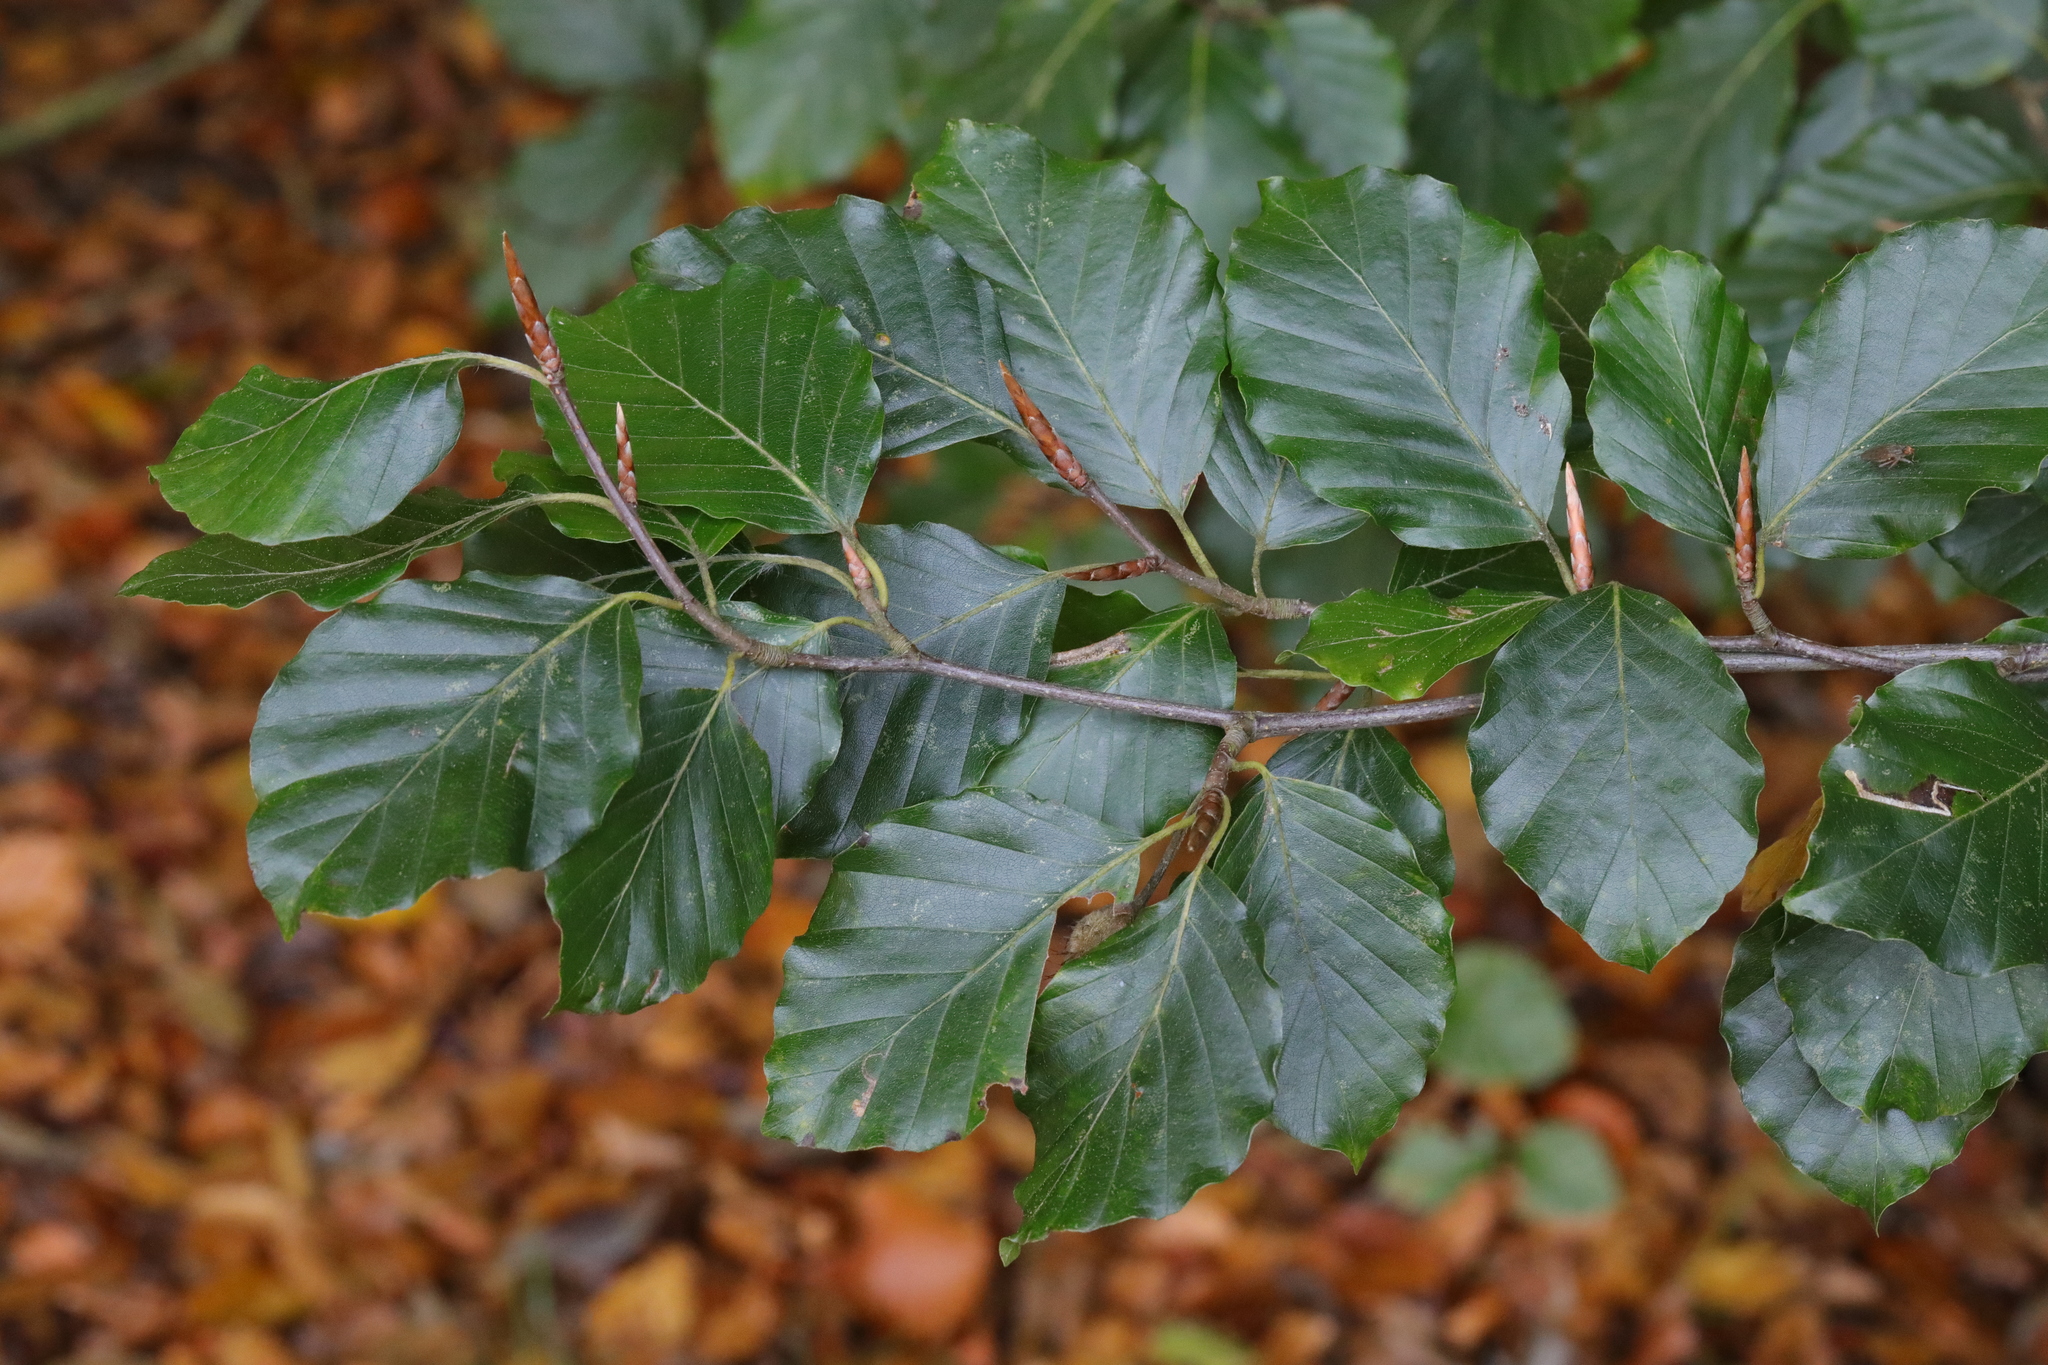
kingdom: Plantae
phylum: Tracheophyta
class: Magnoliopsida
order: Fagales
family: Fagaceae
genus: Fagus
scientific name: Fagus sylvatica
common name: Beech
